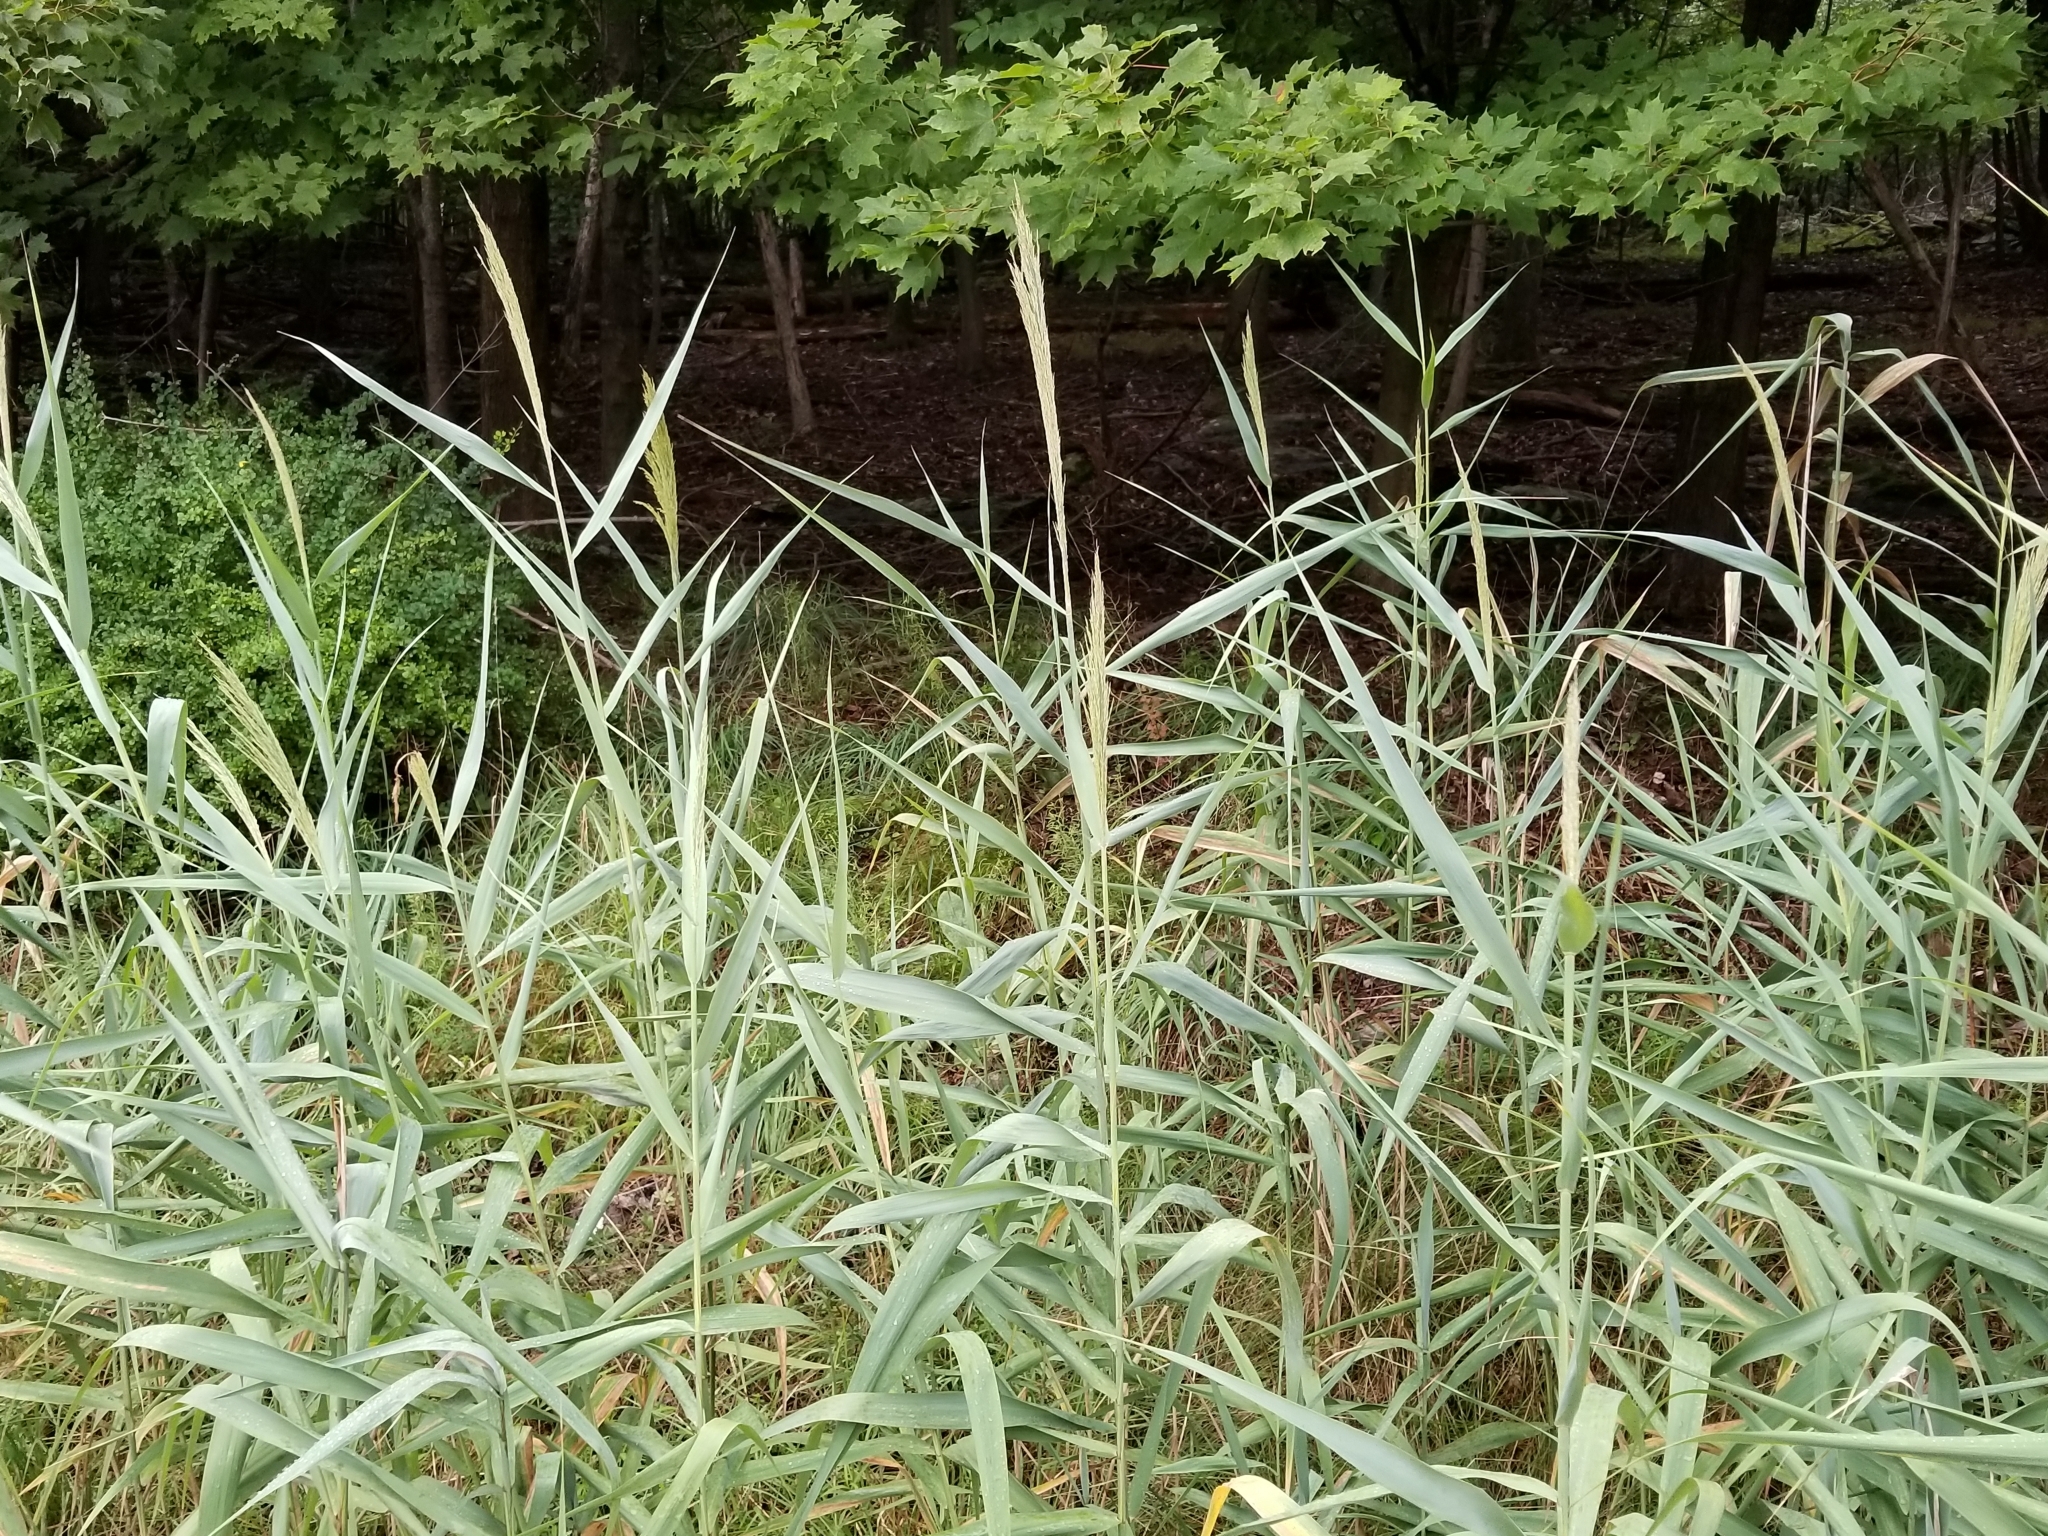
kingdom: Plantae
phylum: Tracheophyta
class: Liliopsida
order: Poales
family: Poaceae
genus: Phragmites
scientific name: Phragmites australis
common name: Common reed
